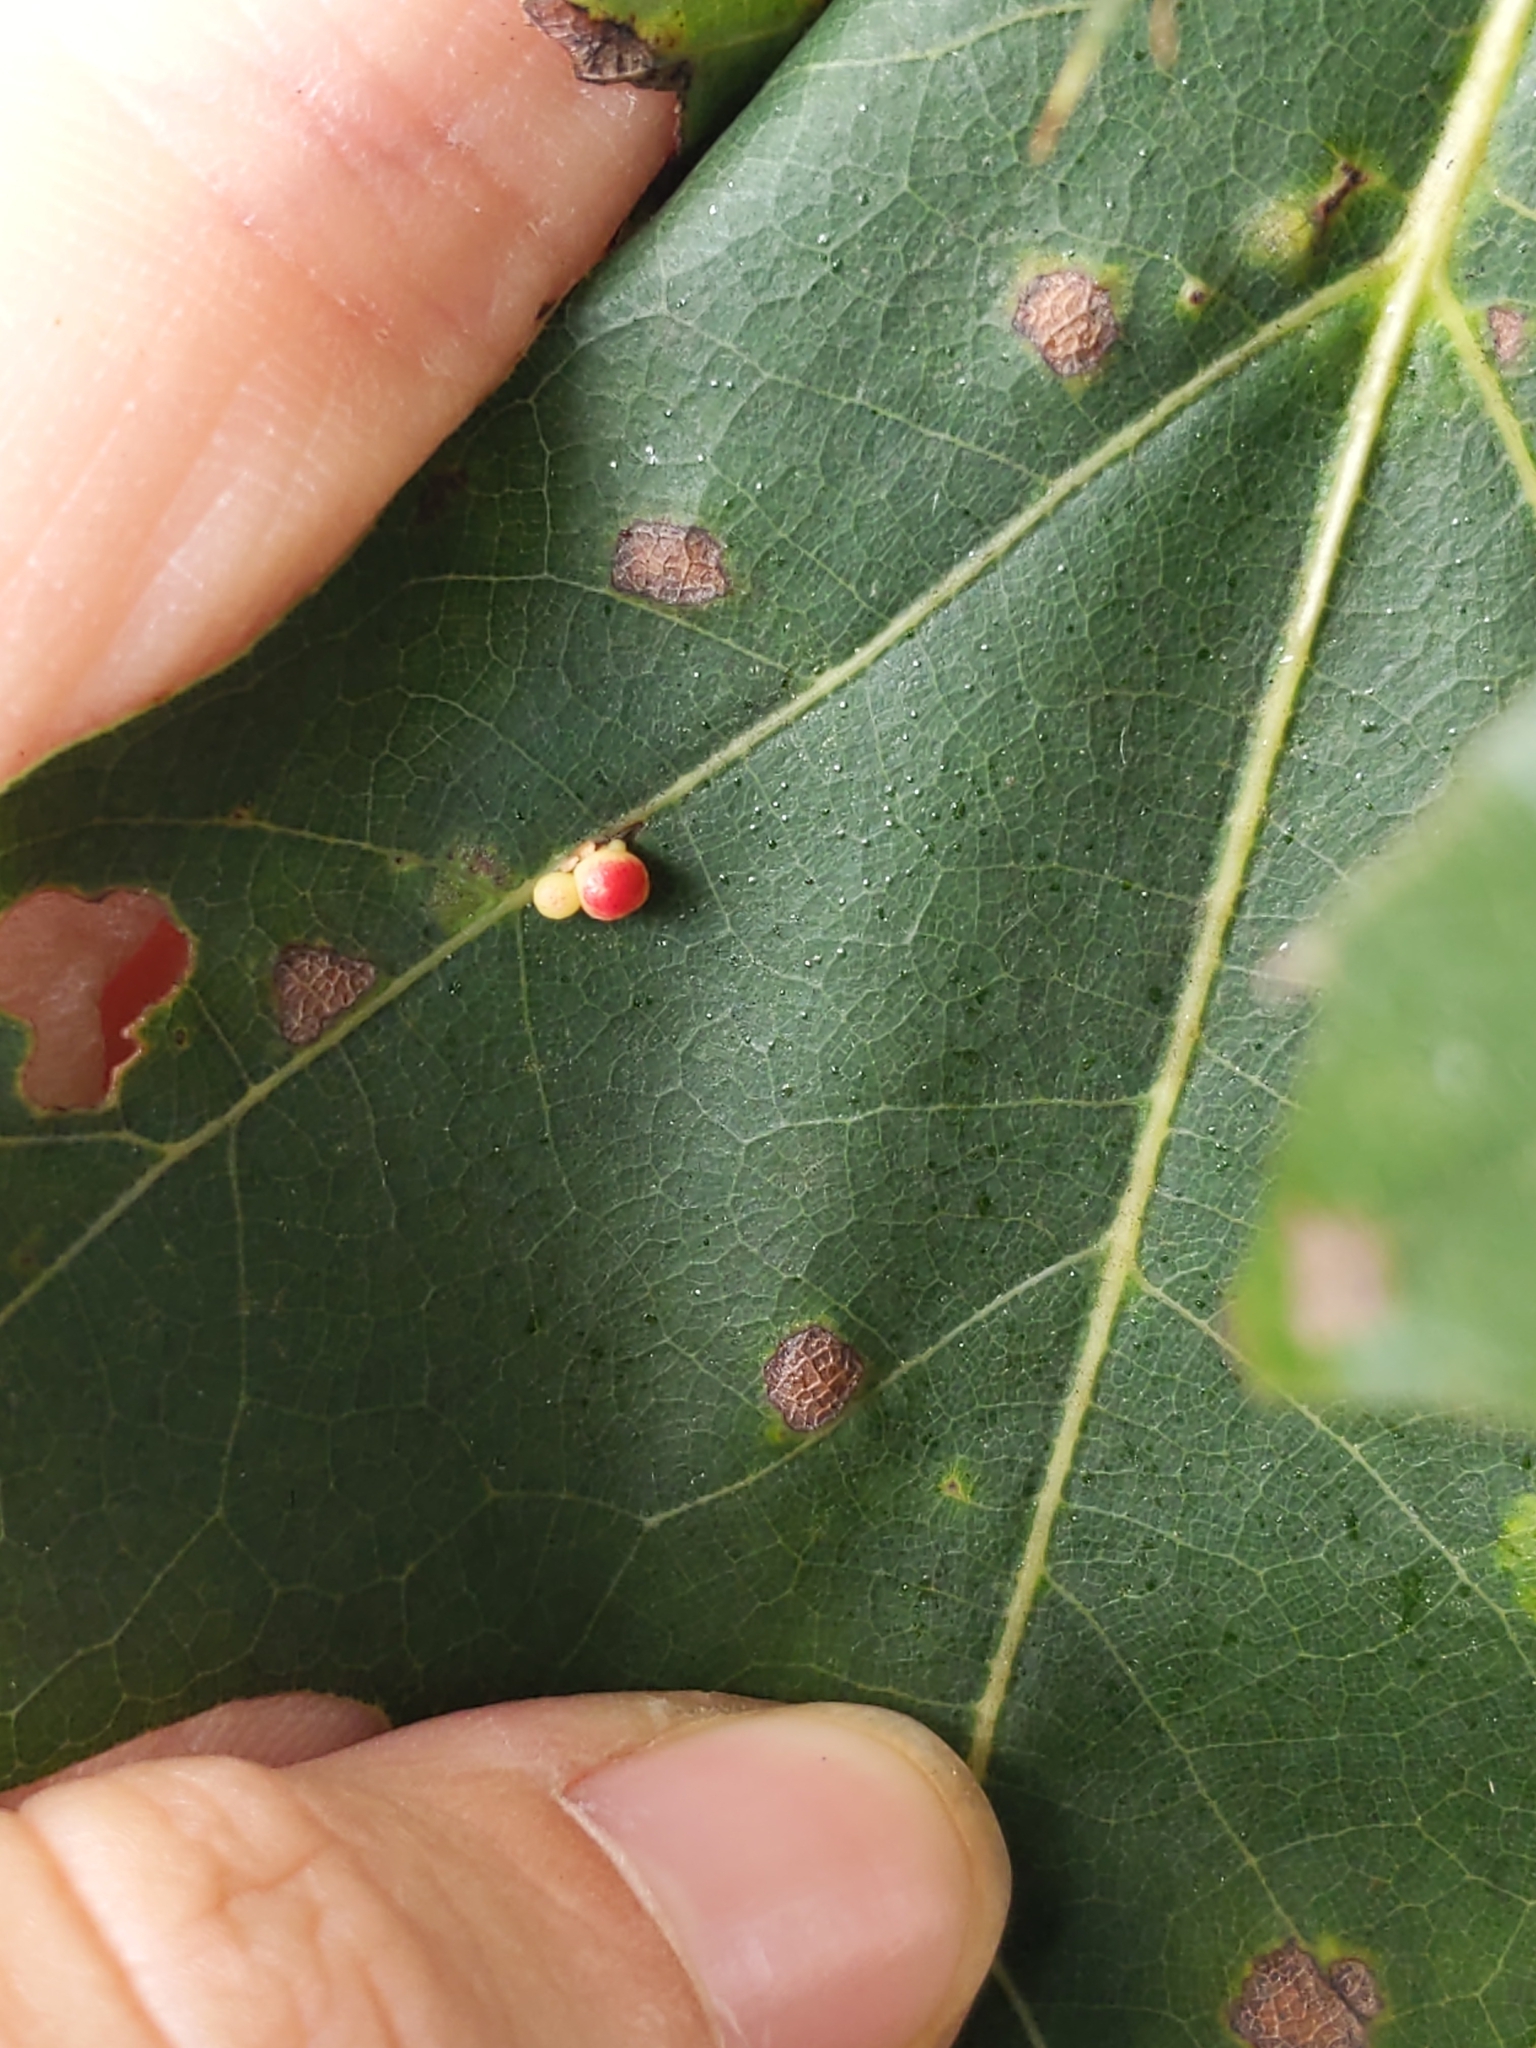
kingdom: Animalia
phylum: Arthropoda
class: Insecta
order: Hymenoptera
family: Cynipidae
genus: Zopheroteras
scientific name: Zopheroteras
